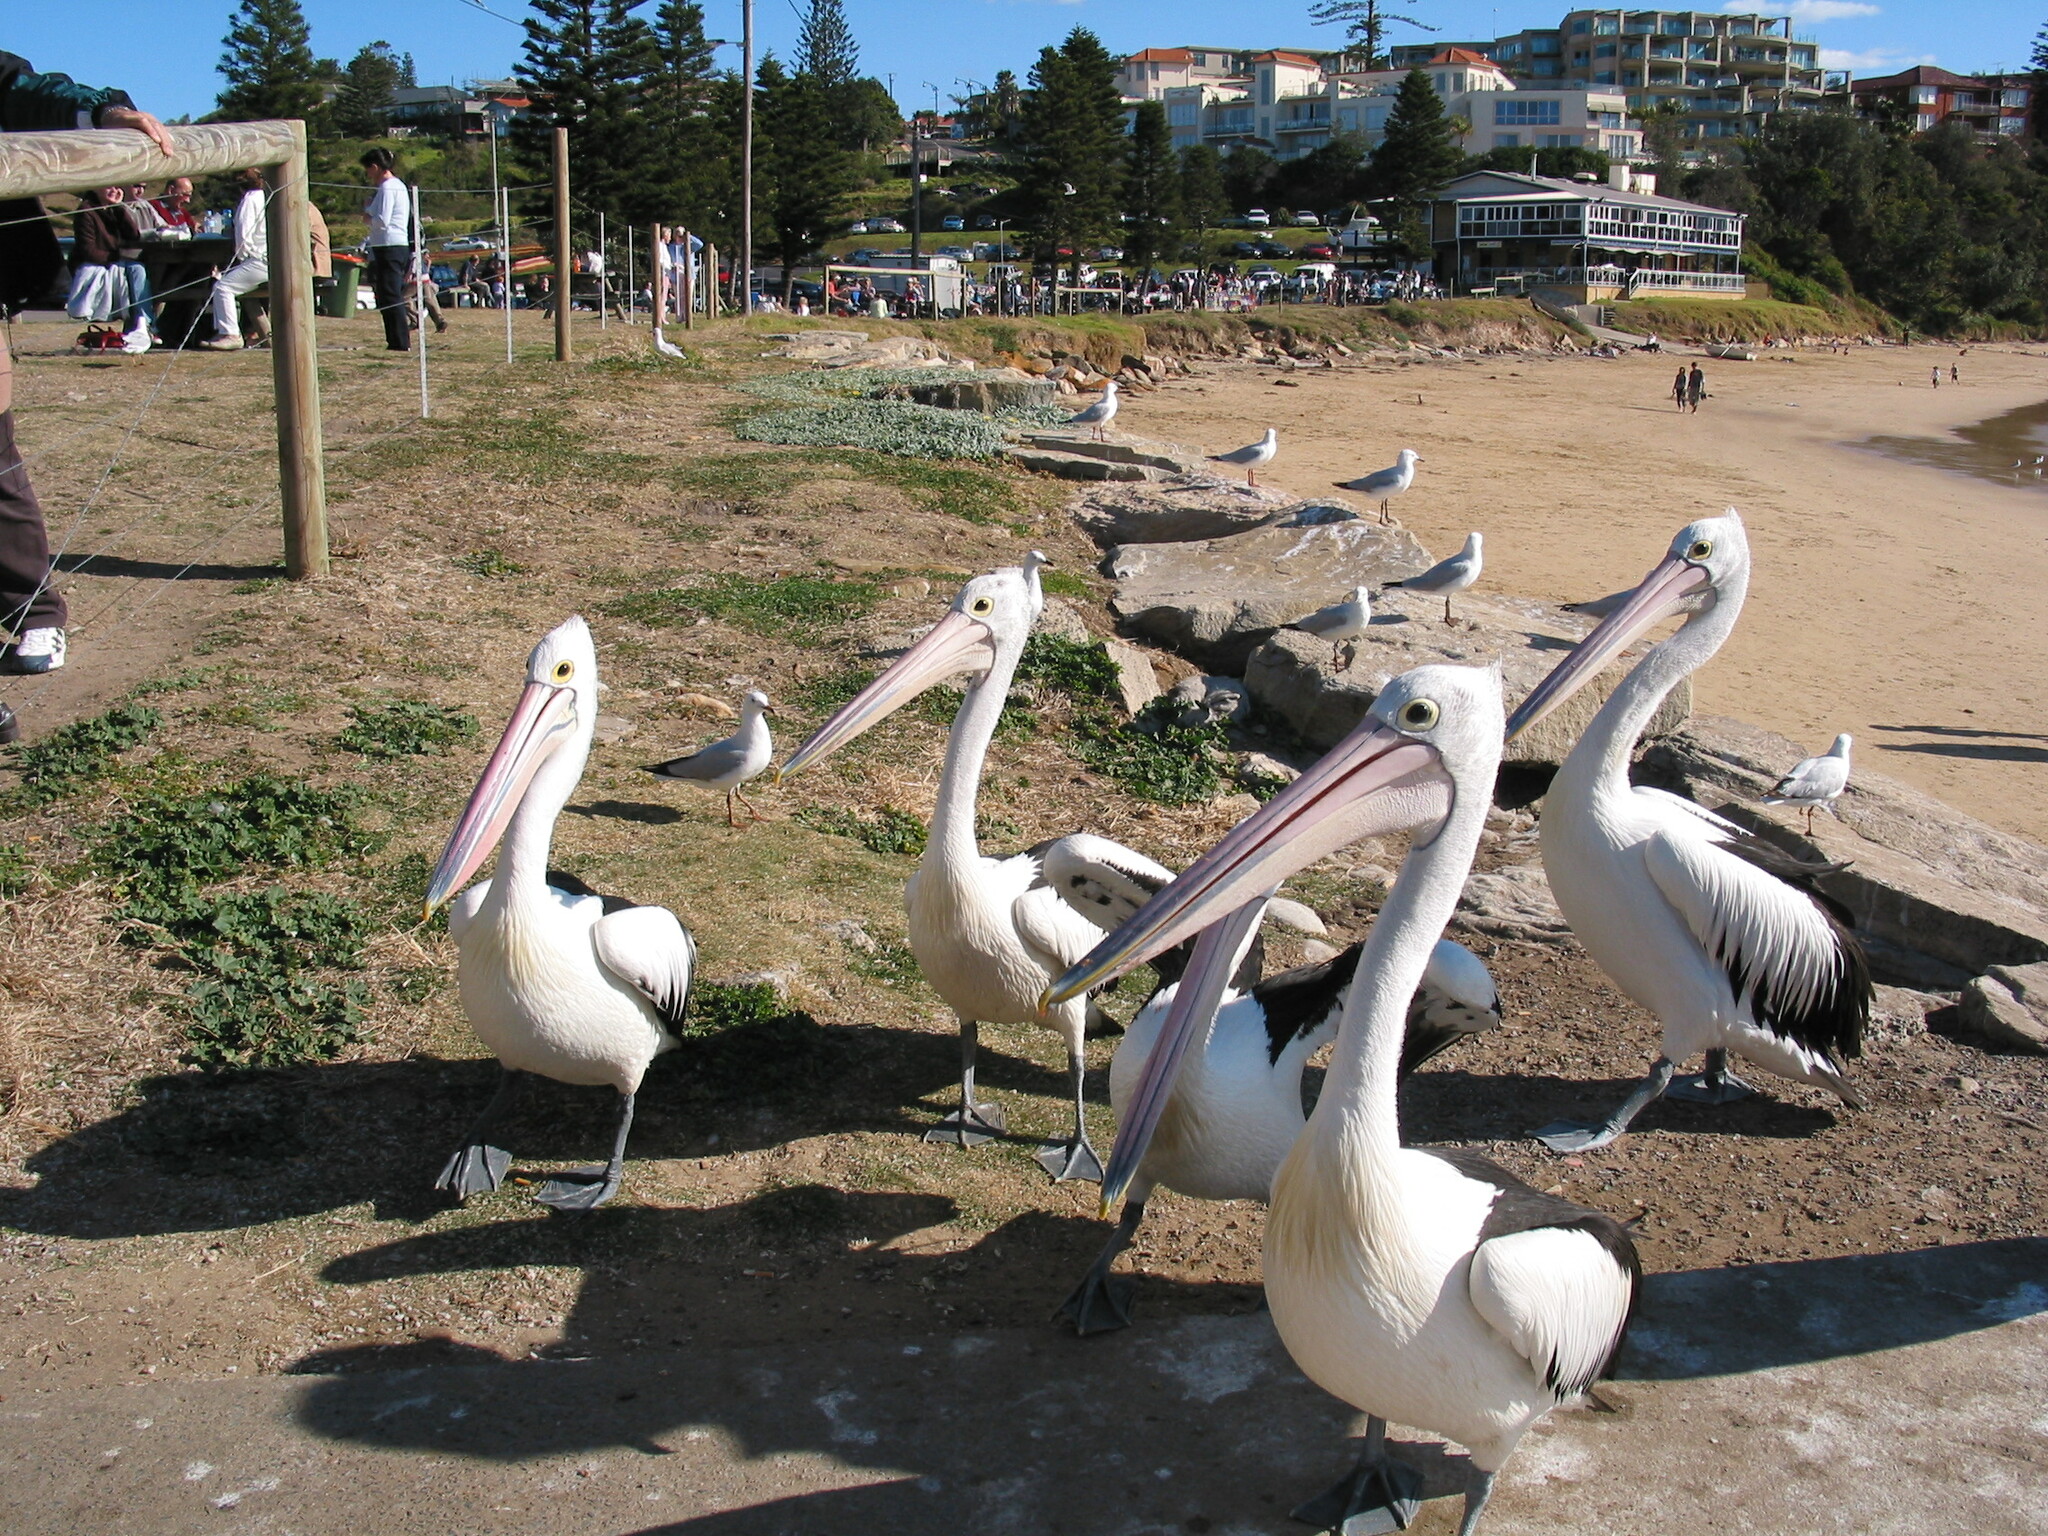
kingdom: Animalia
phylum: Chordata
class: Aves
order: Pelecaniformes
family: Pelecanidae
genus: Pelecanus
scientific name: Pelecanus conspicillatus
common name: Australian pelican
